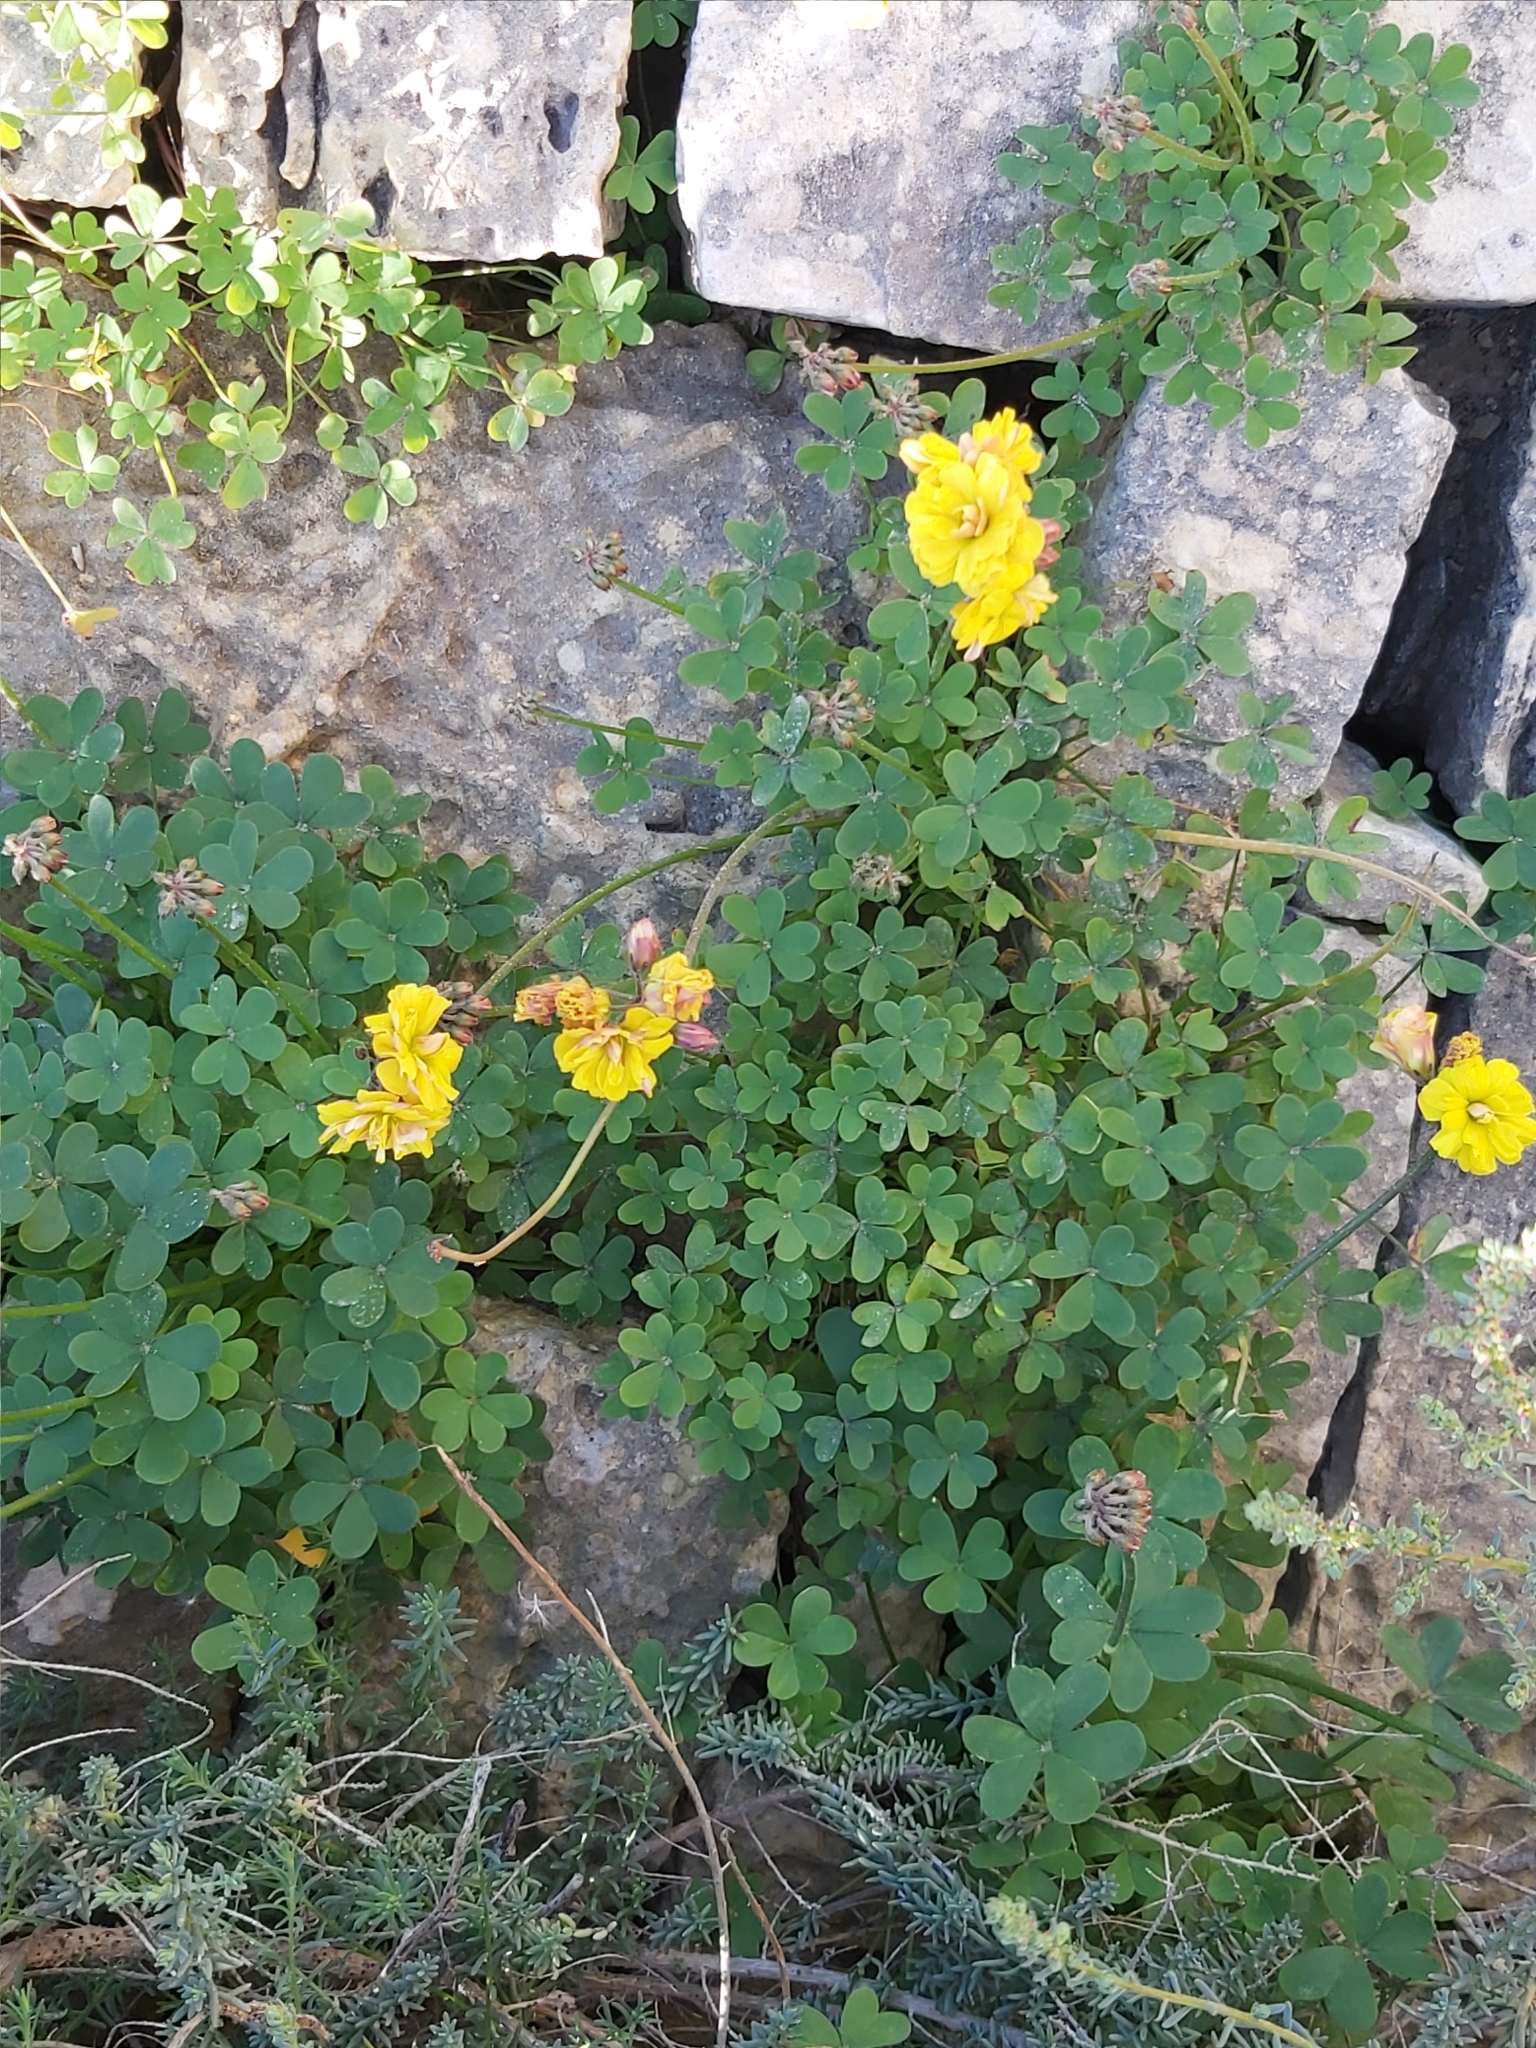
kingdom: Plantae
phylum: Tracheophyta
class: Magnoliopsida
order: Oxalidales
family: Oxalidaceae
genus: Oxalis
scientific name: Oxalis pes-caprae
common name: Bermuda-buttercup
